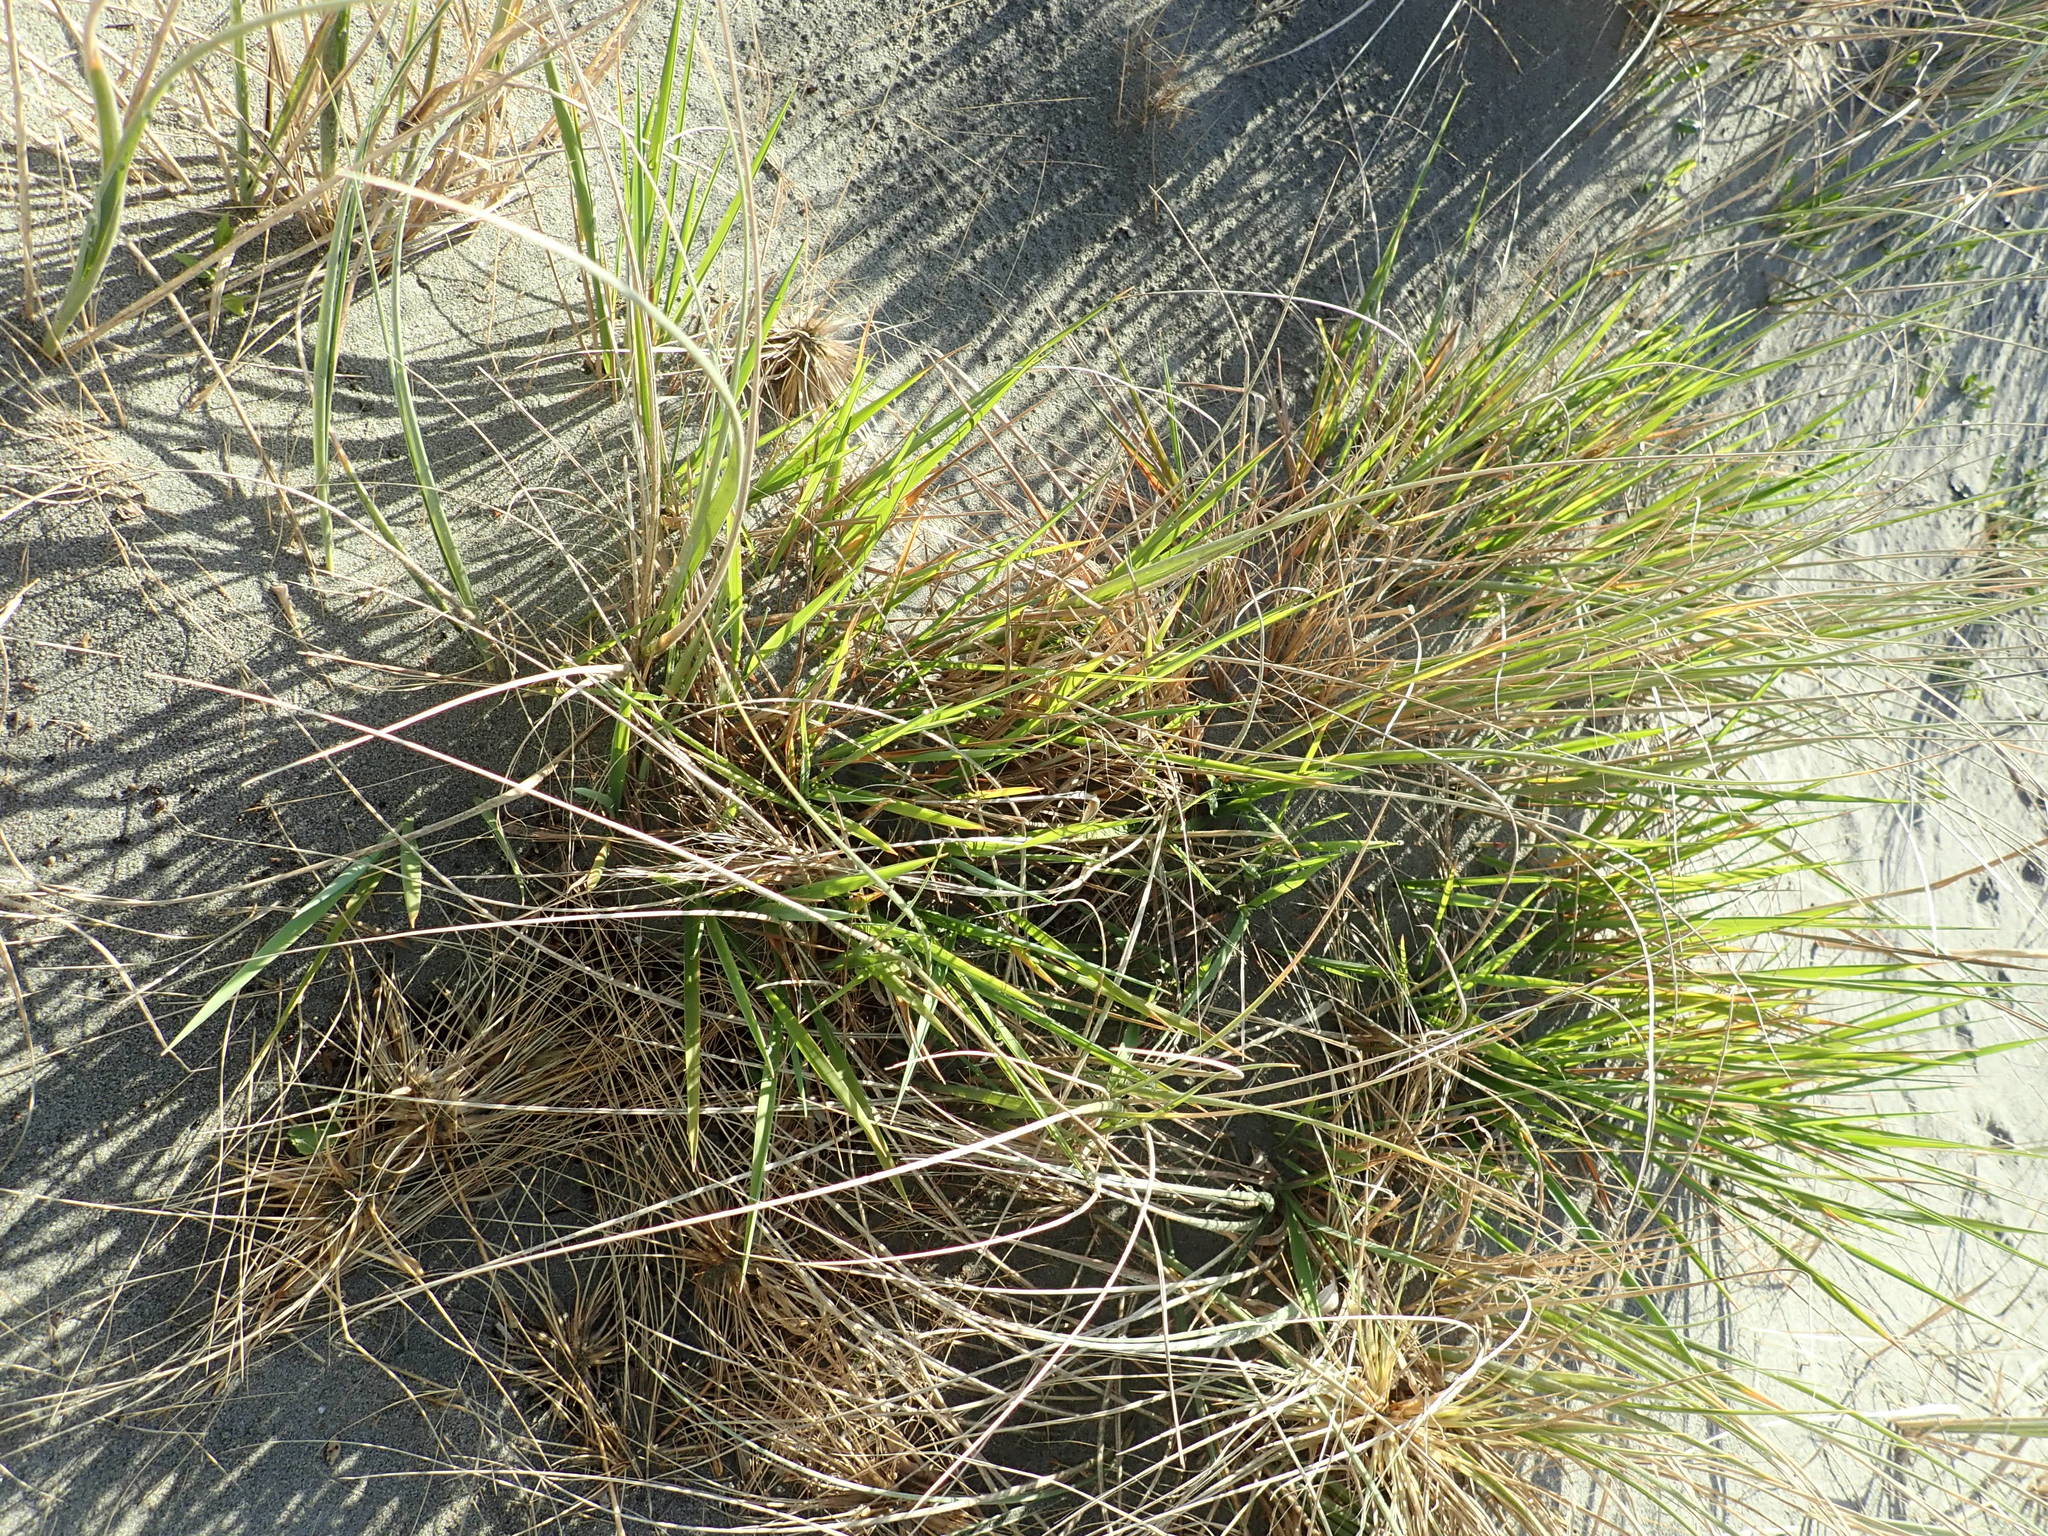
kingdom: Plantae
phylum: Tracheophyta
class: Liliopsida
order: Poales
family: Poaceae
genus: Lachnagrostis
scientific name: Lachnagrostis billardierei
